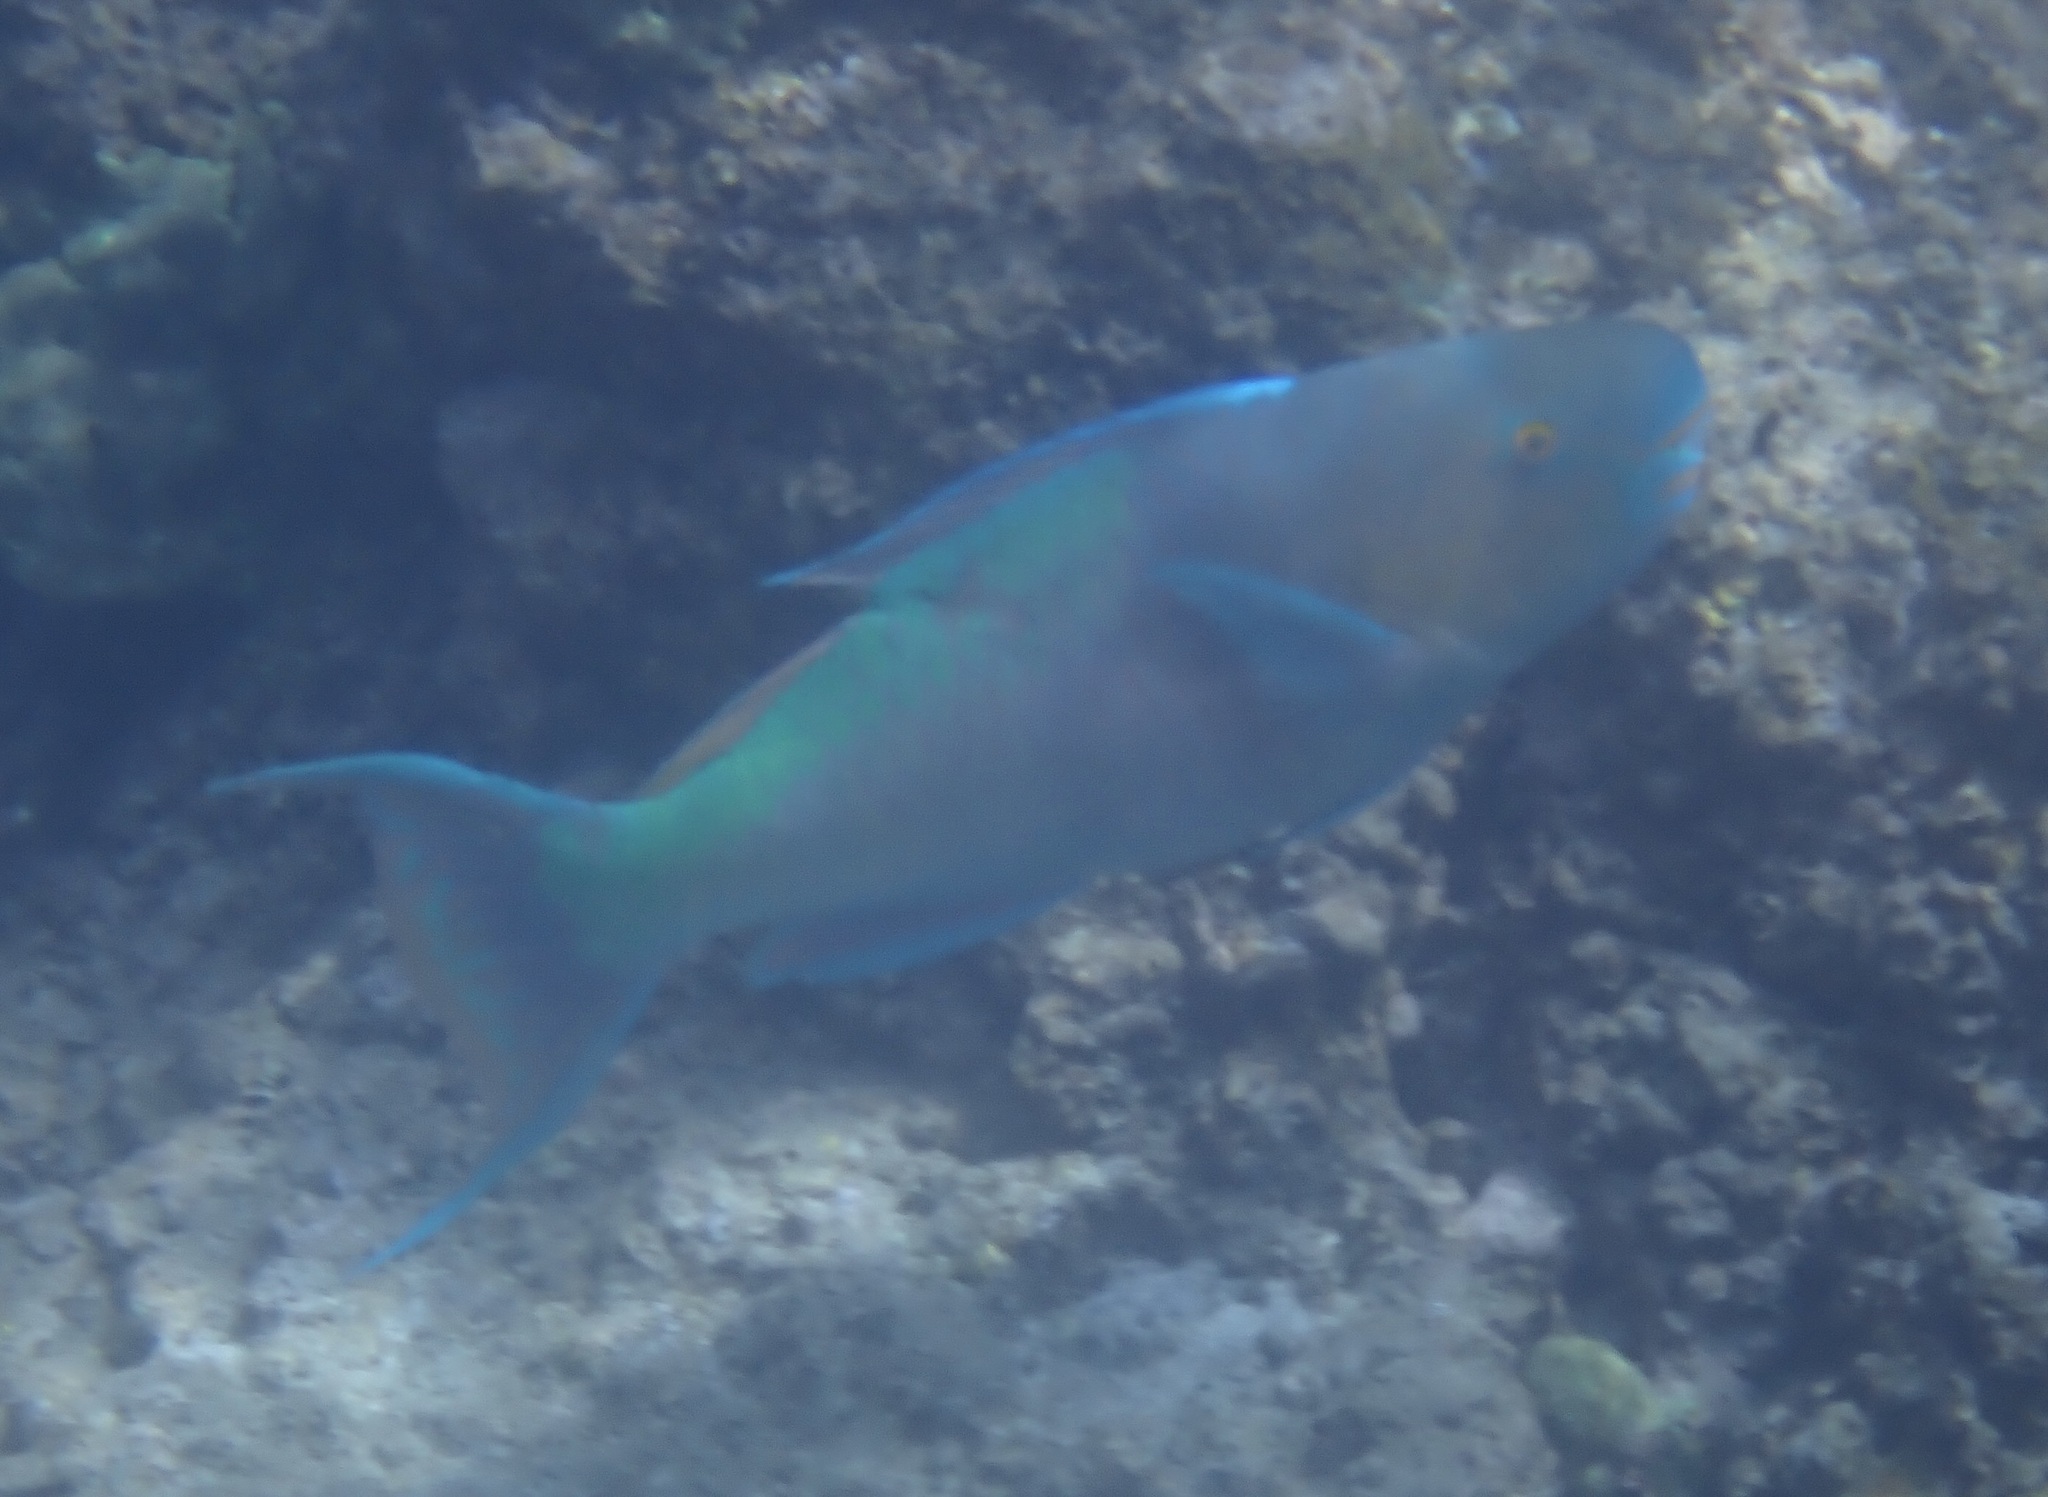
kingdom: Animalia
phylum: Chordata
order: Perciformes
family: Scaridae
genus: Scarus
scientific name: Scarus rubroviolaceus
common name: Ember parrotfish
